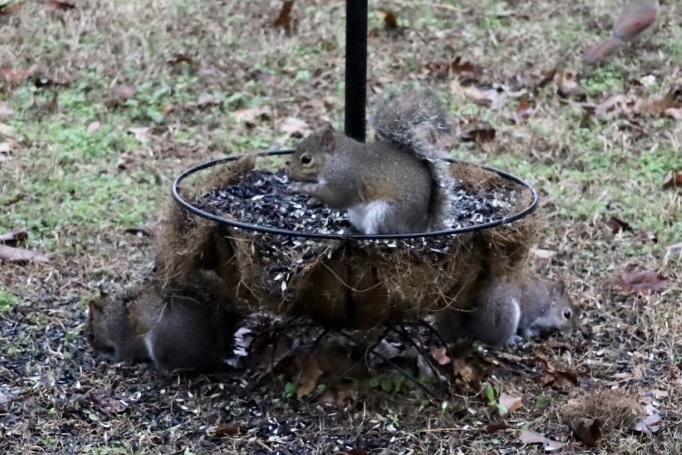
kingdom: Animalia
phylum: Chordata
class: Mammalia
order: Rodentia
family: Sciuridae
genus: Sciurus
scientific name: Sciurus carolinensis
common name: Eastern gray squirrel
